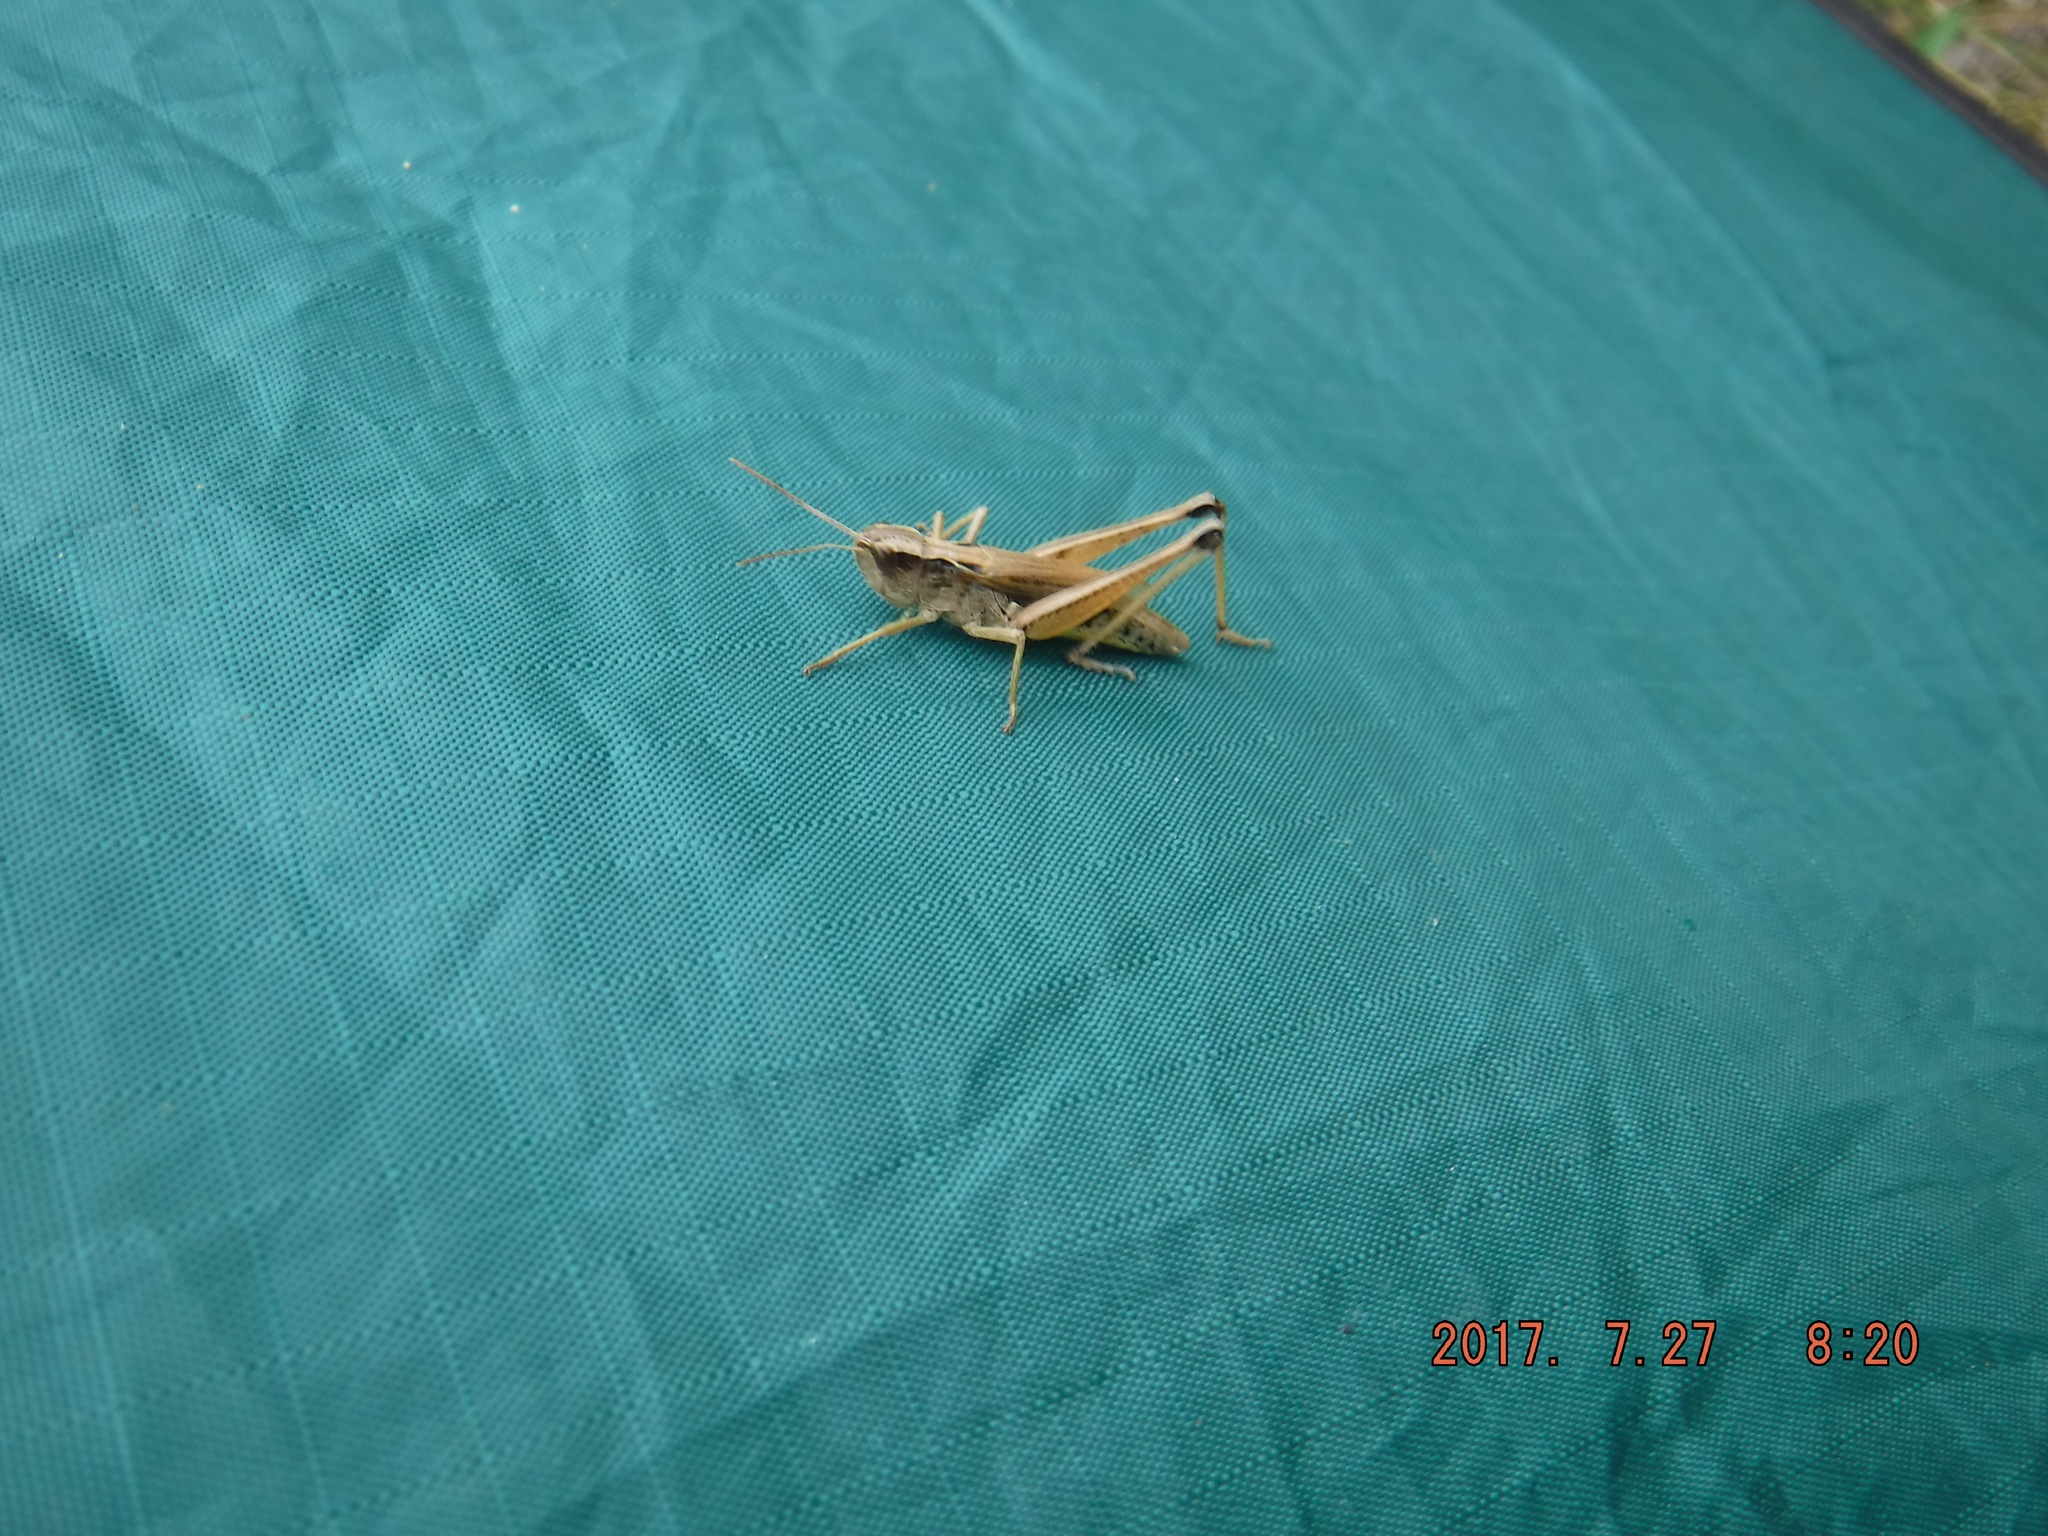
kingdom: Animalia
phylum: Arthropoda
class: Insecta
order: Orthoptera
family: Acrididae
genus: Pseudochorthippus
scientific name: Pseudochorthippus curtipennis
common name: Marsh meadow grasshopper
